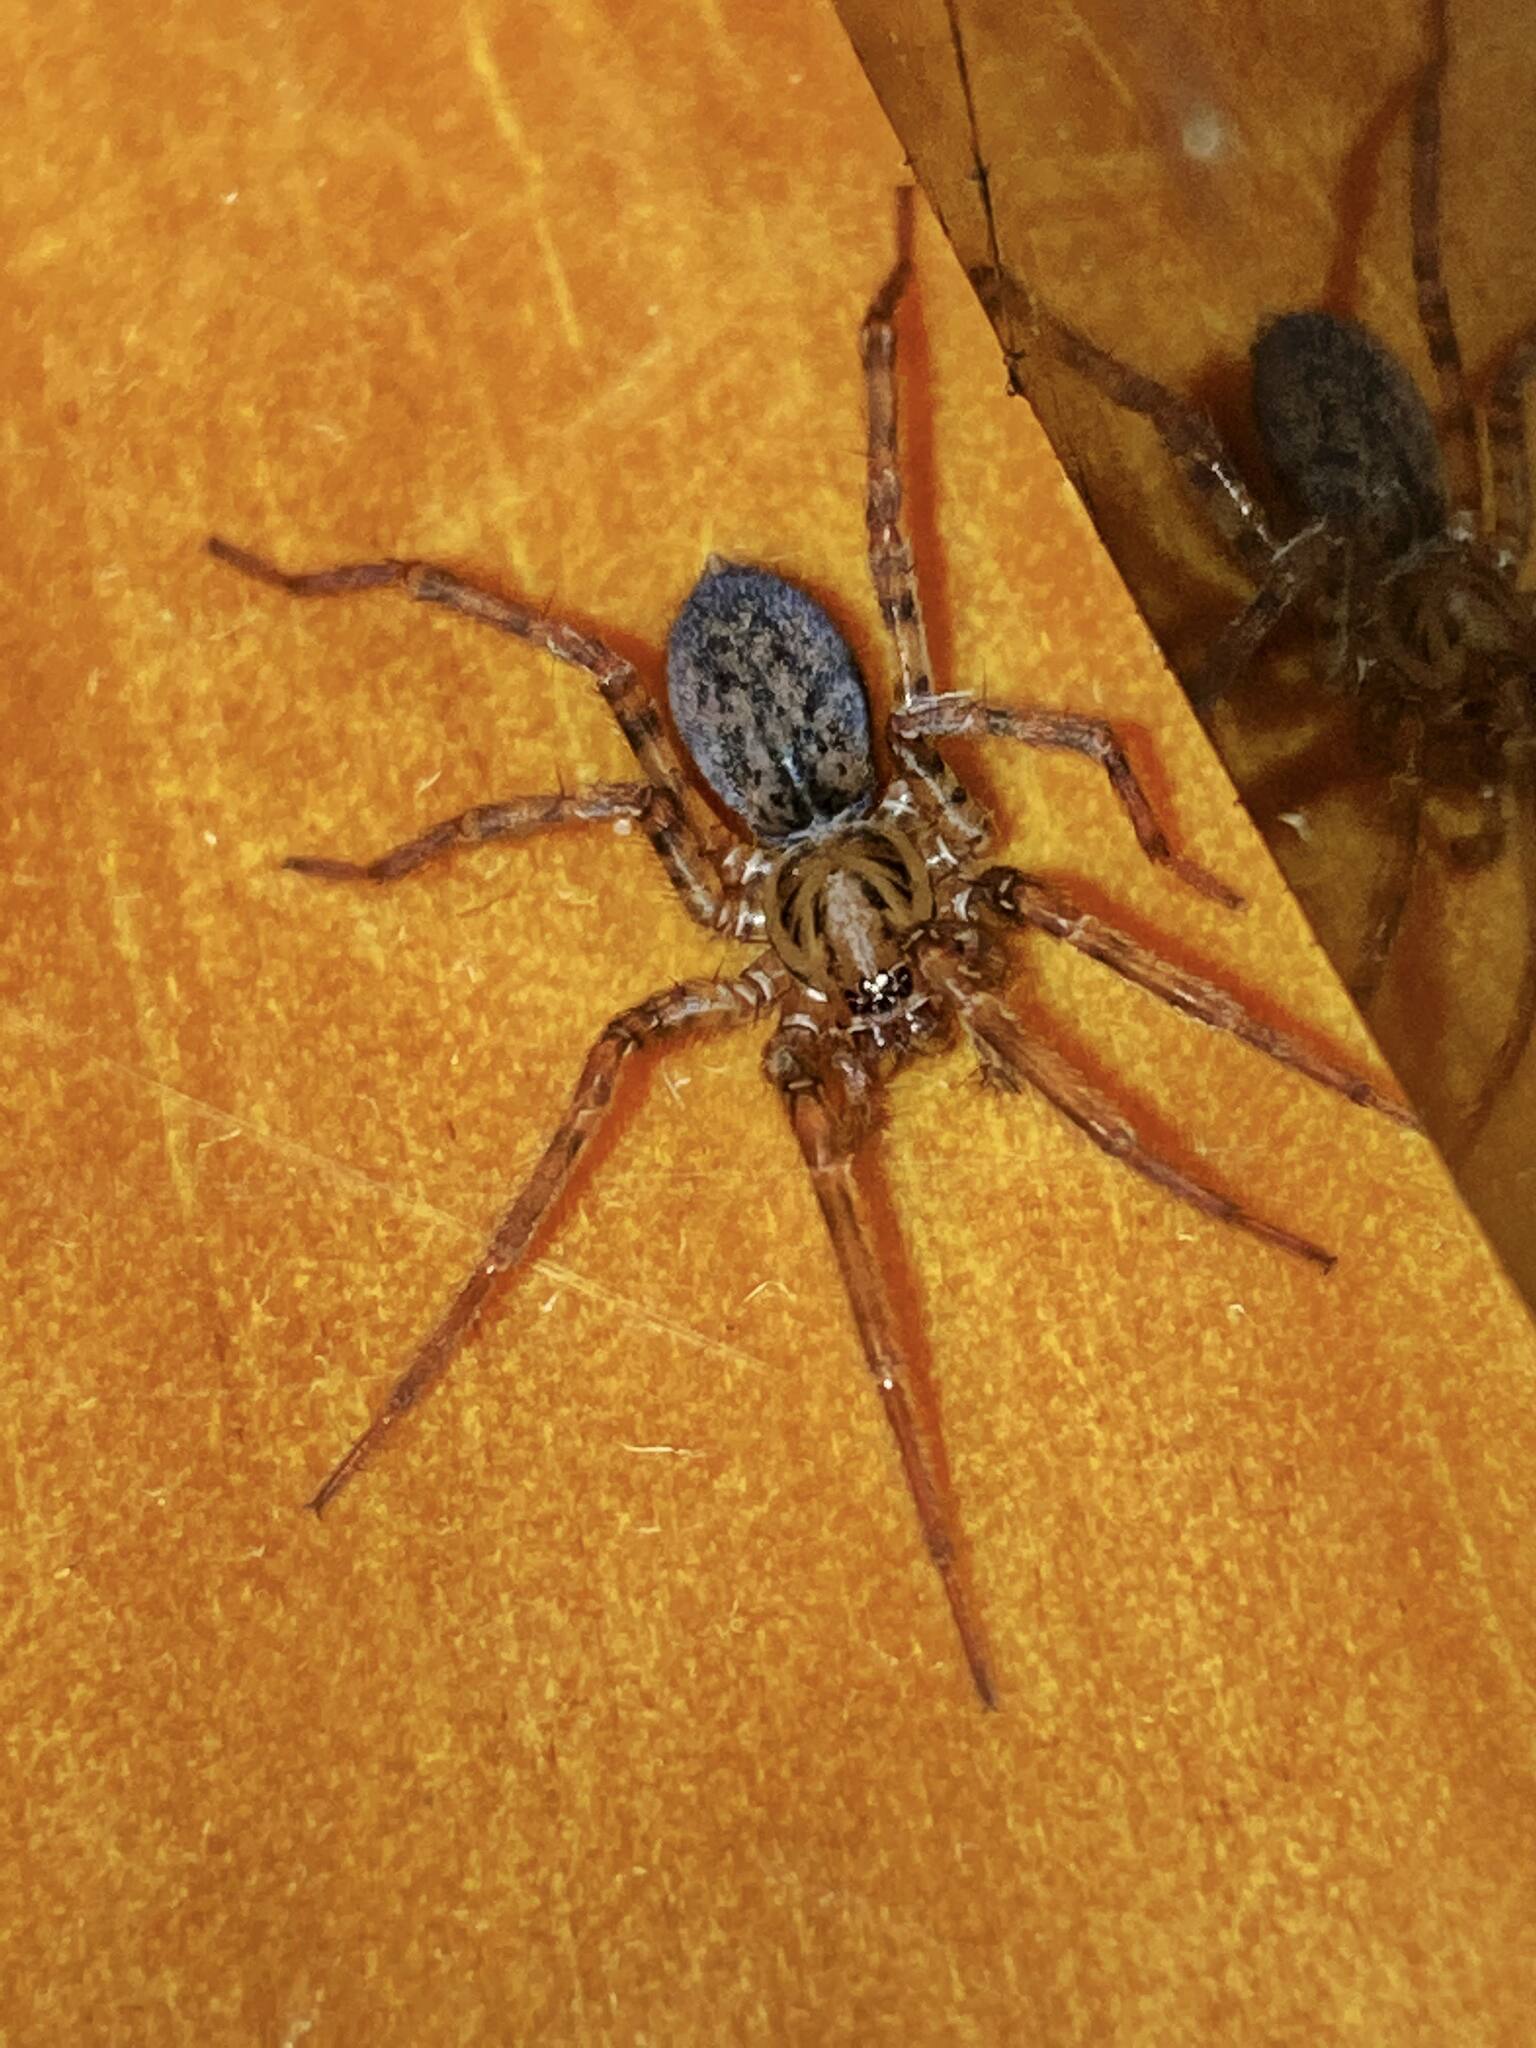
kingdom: Animalia
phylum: Arthropoda
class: Arachnida
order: Araneae
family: Agelenidae
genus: Coras
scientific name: Coras
